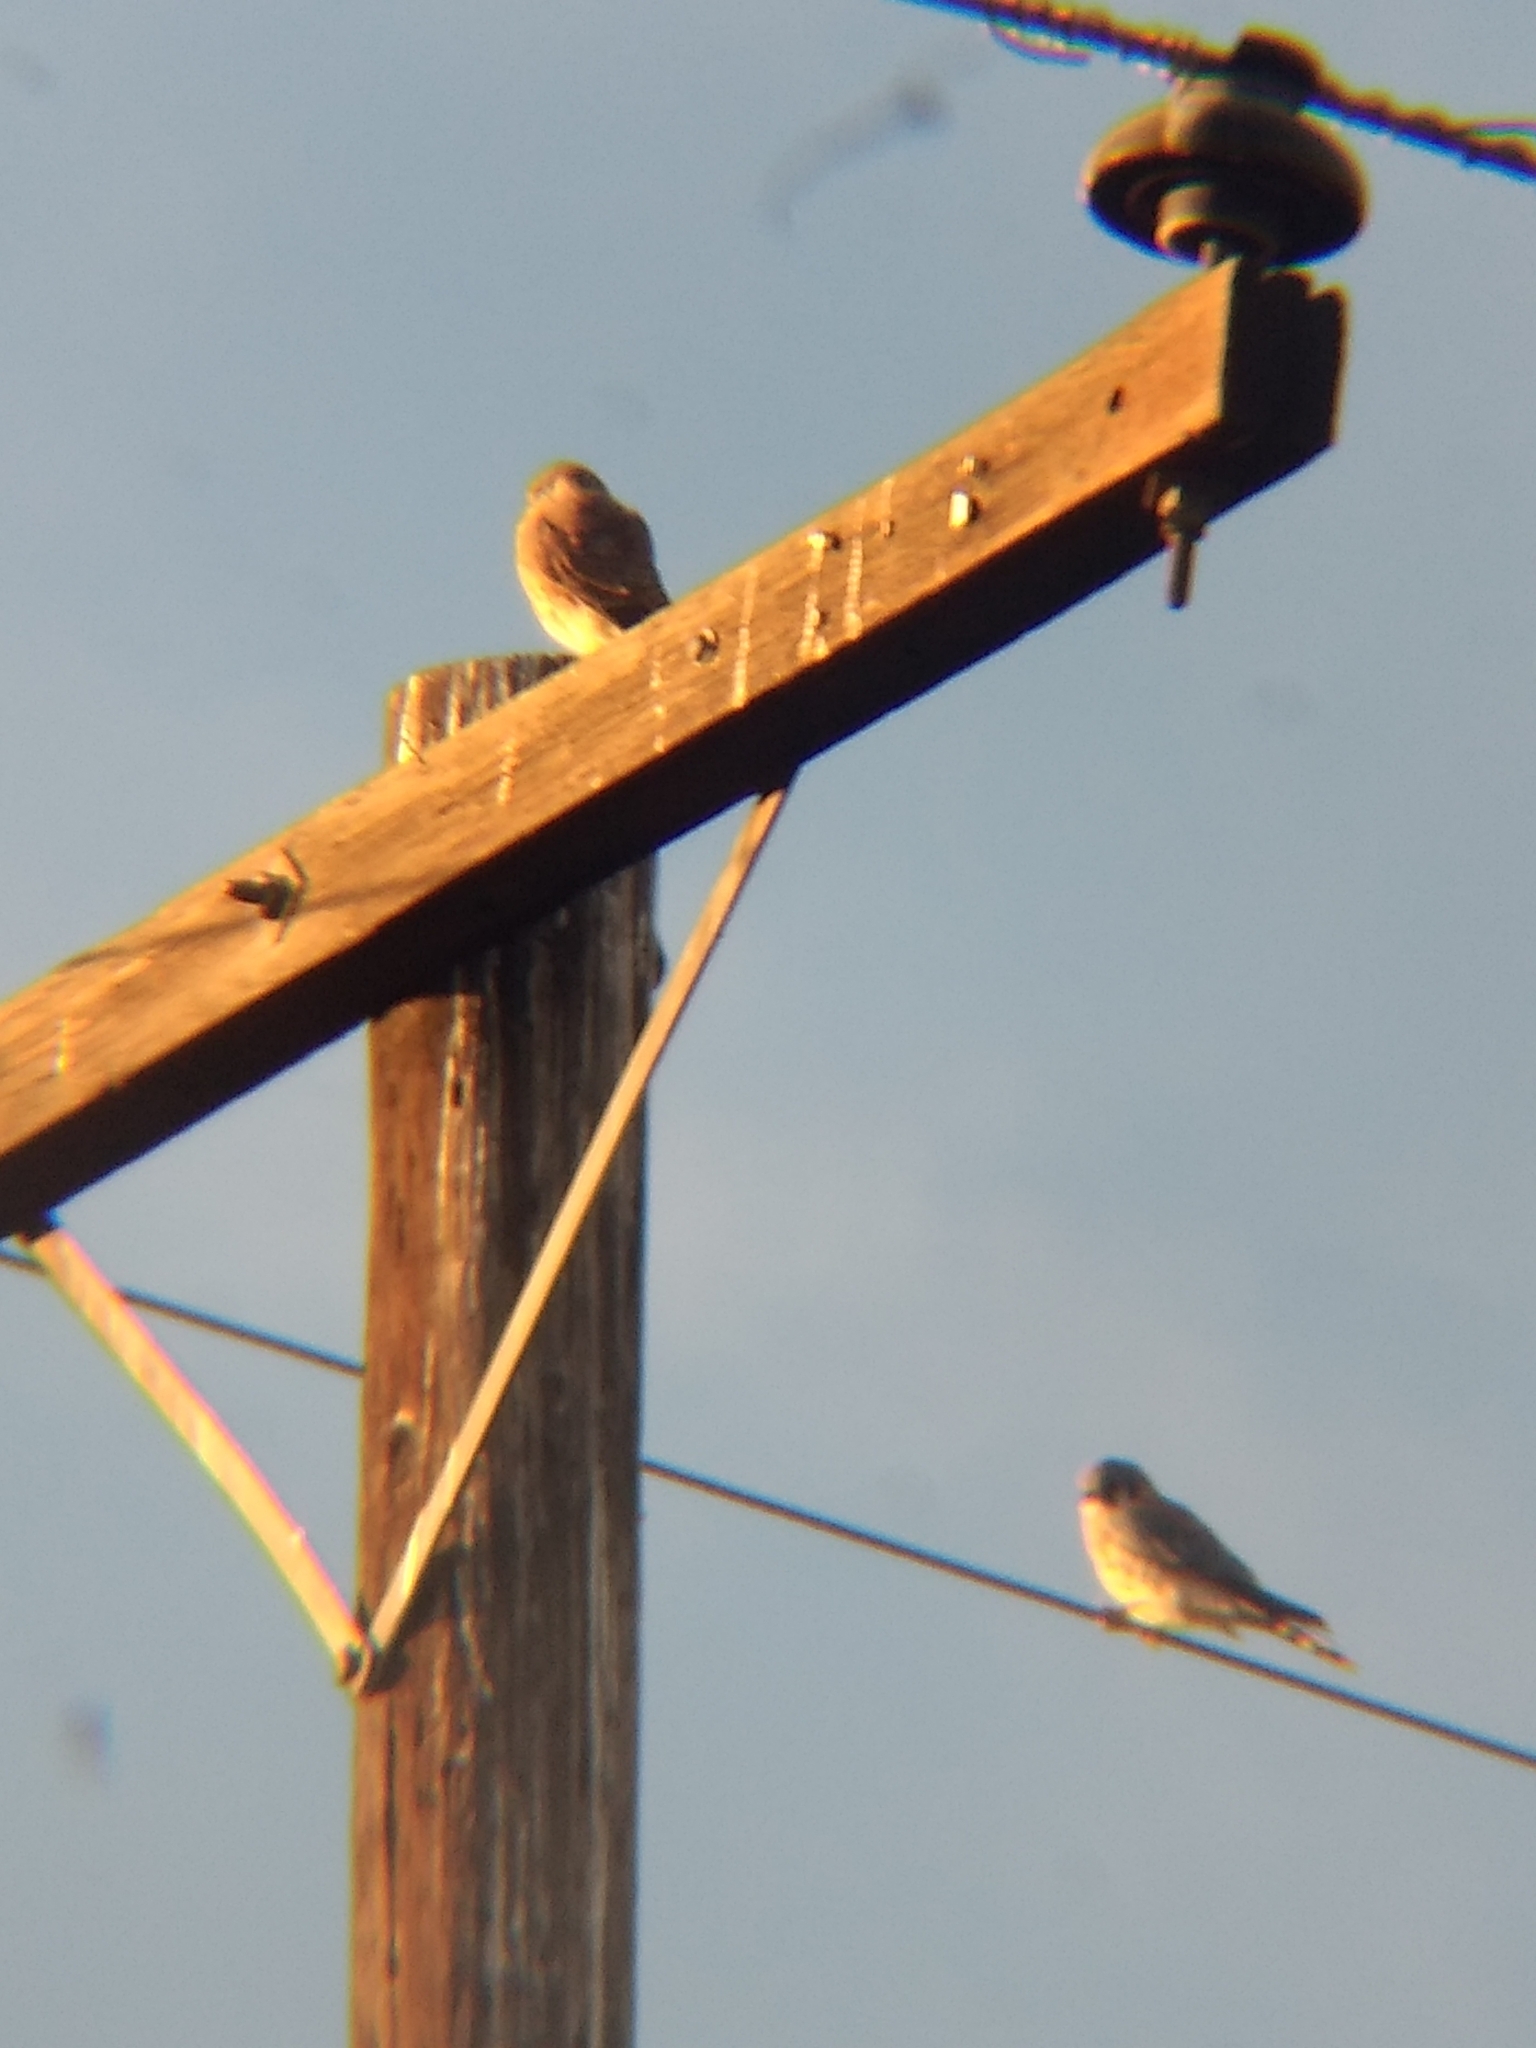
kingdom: Animalia
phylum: Chordata
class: Aves
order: Falconiformes
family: Falconidae
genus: Falco
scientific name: Falco sparverius
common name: American kestrel
